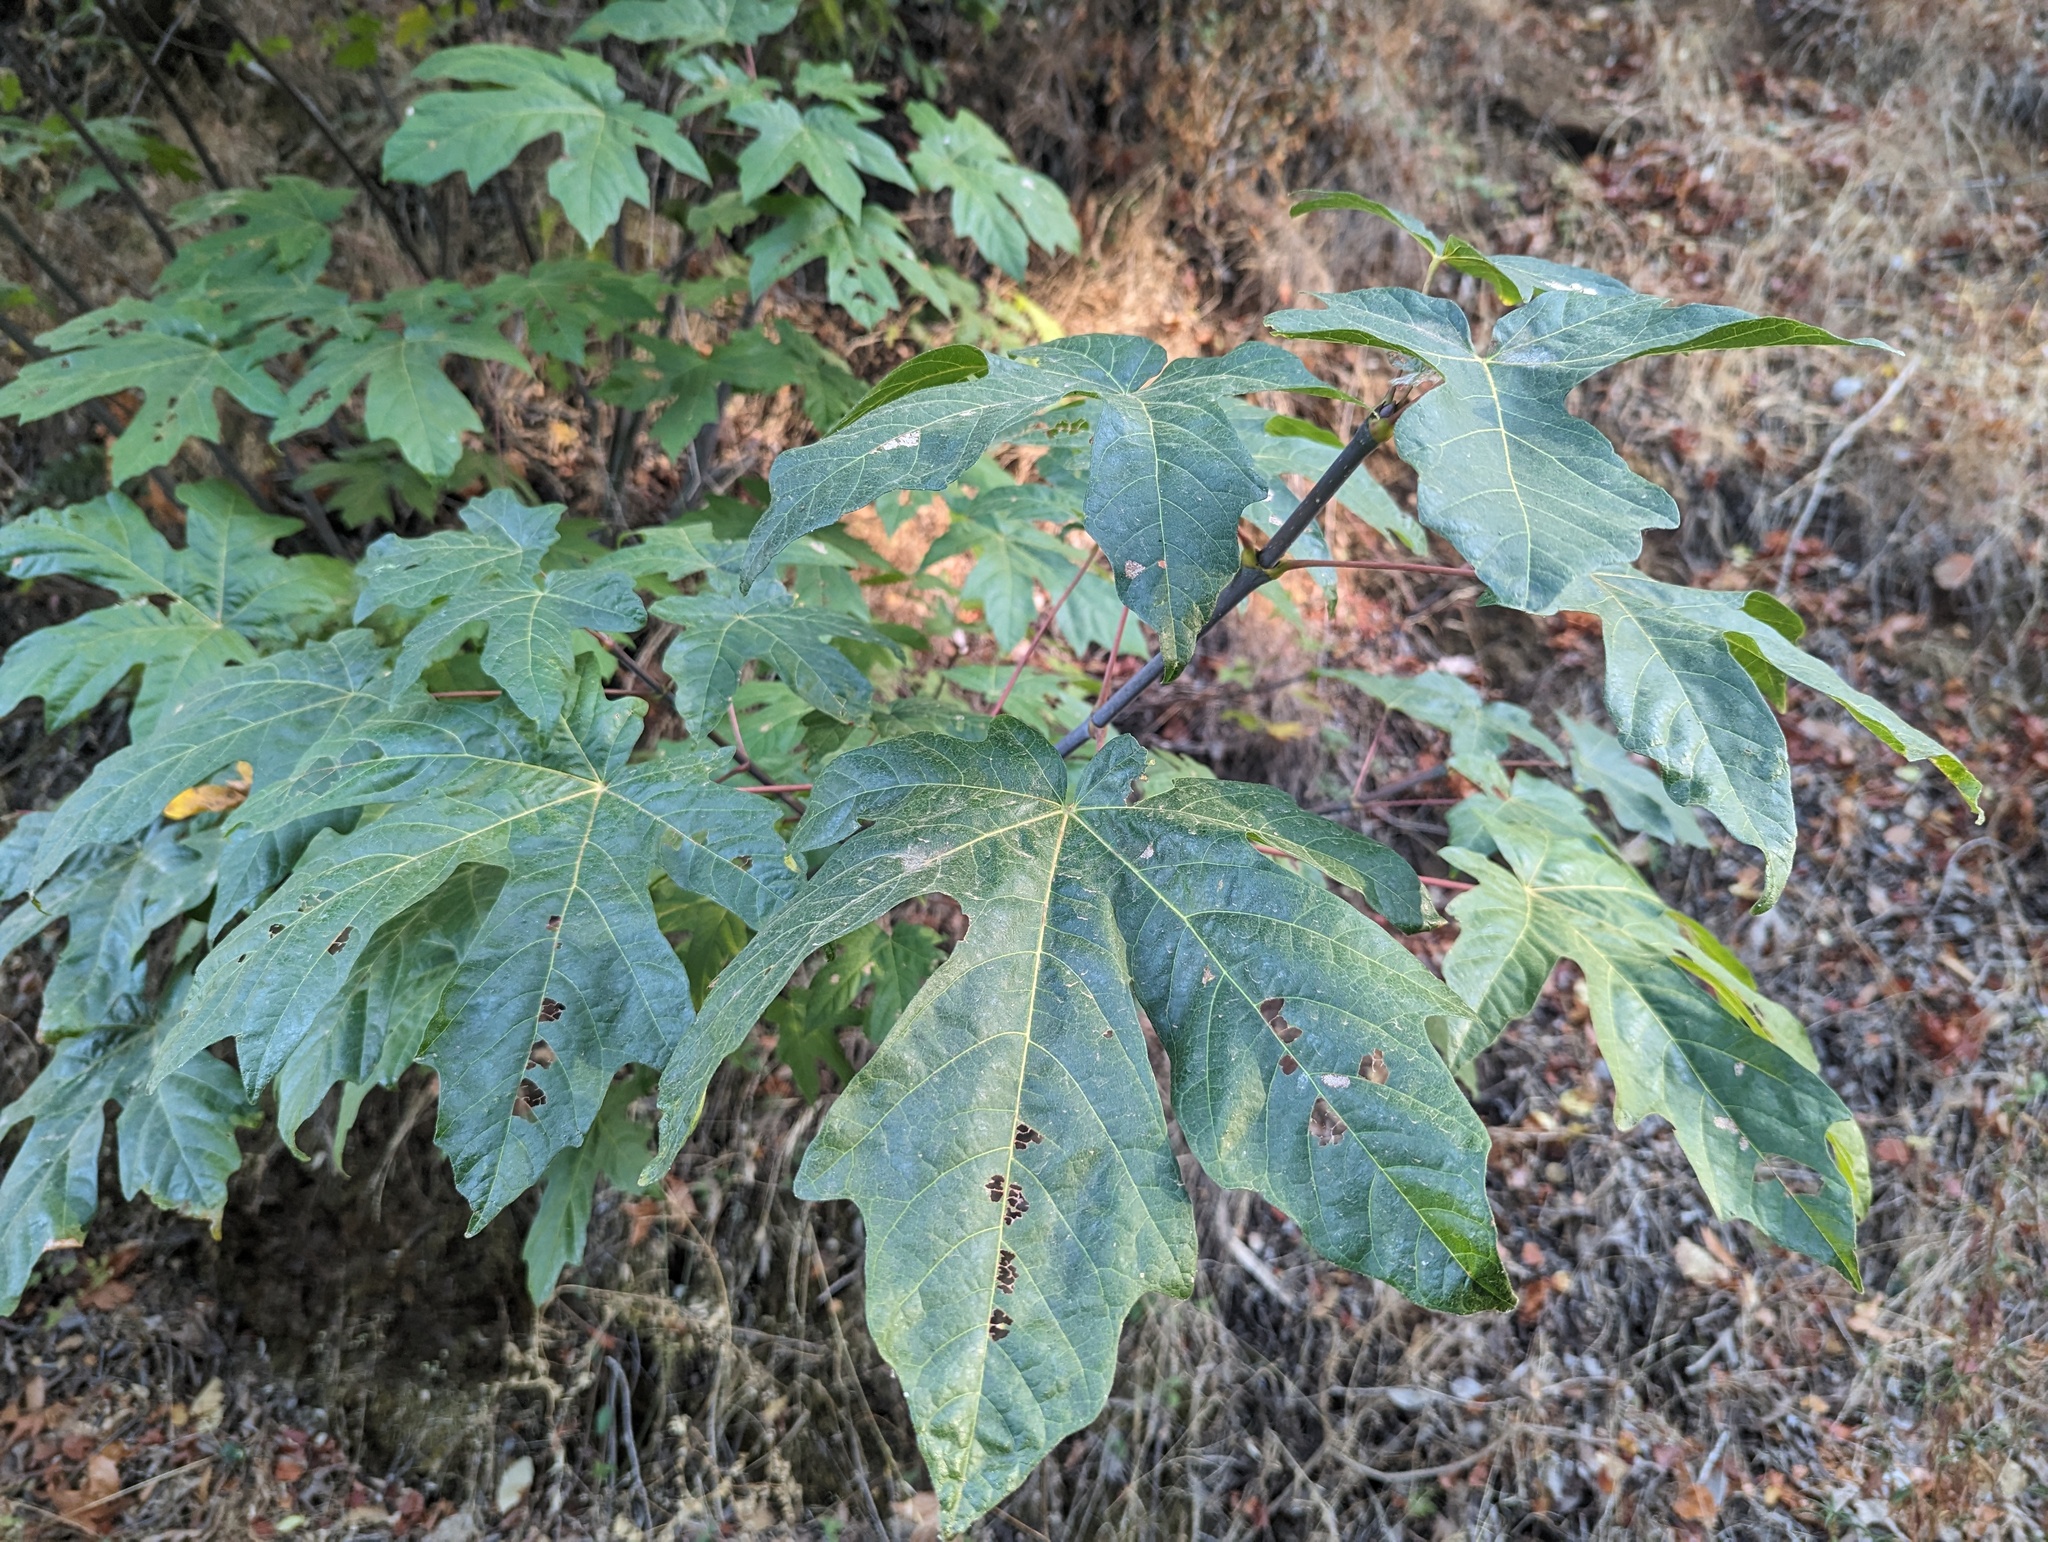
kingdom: Plantae
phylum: Tracheophyta
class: Magnoliopsida
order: Sapindales
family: Sapindaceae
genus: Acer
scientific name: Acer macrophyllum
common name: Oregon maple
